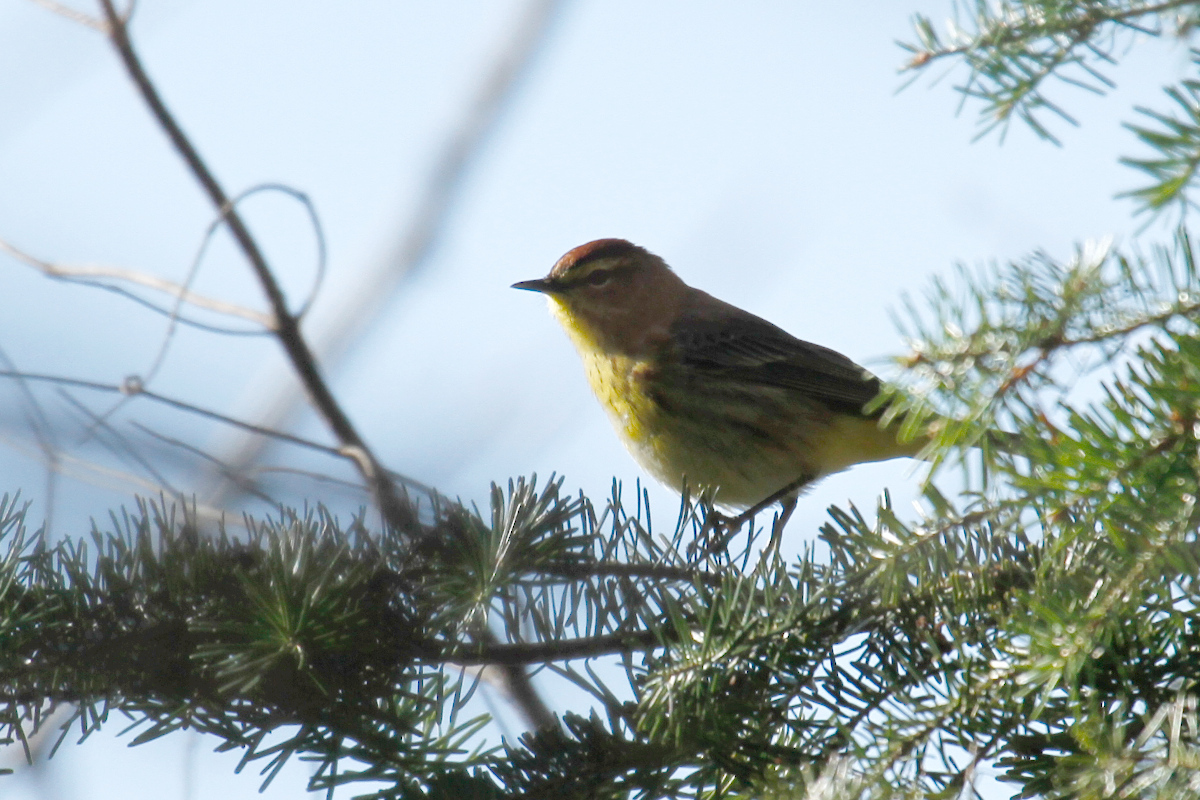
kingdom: Animalia
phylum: Chordata
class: Aves
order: Passeriformes
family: Parulidae
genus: Setophaga
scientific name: Setophaga palmarum
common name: Palm warbler
